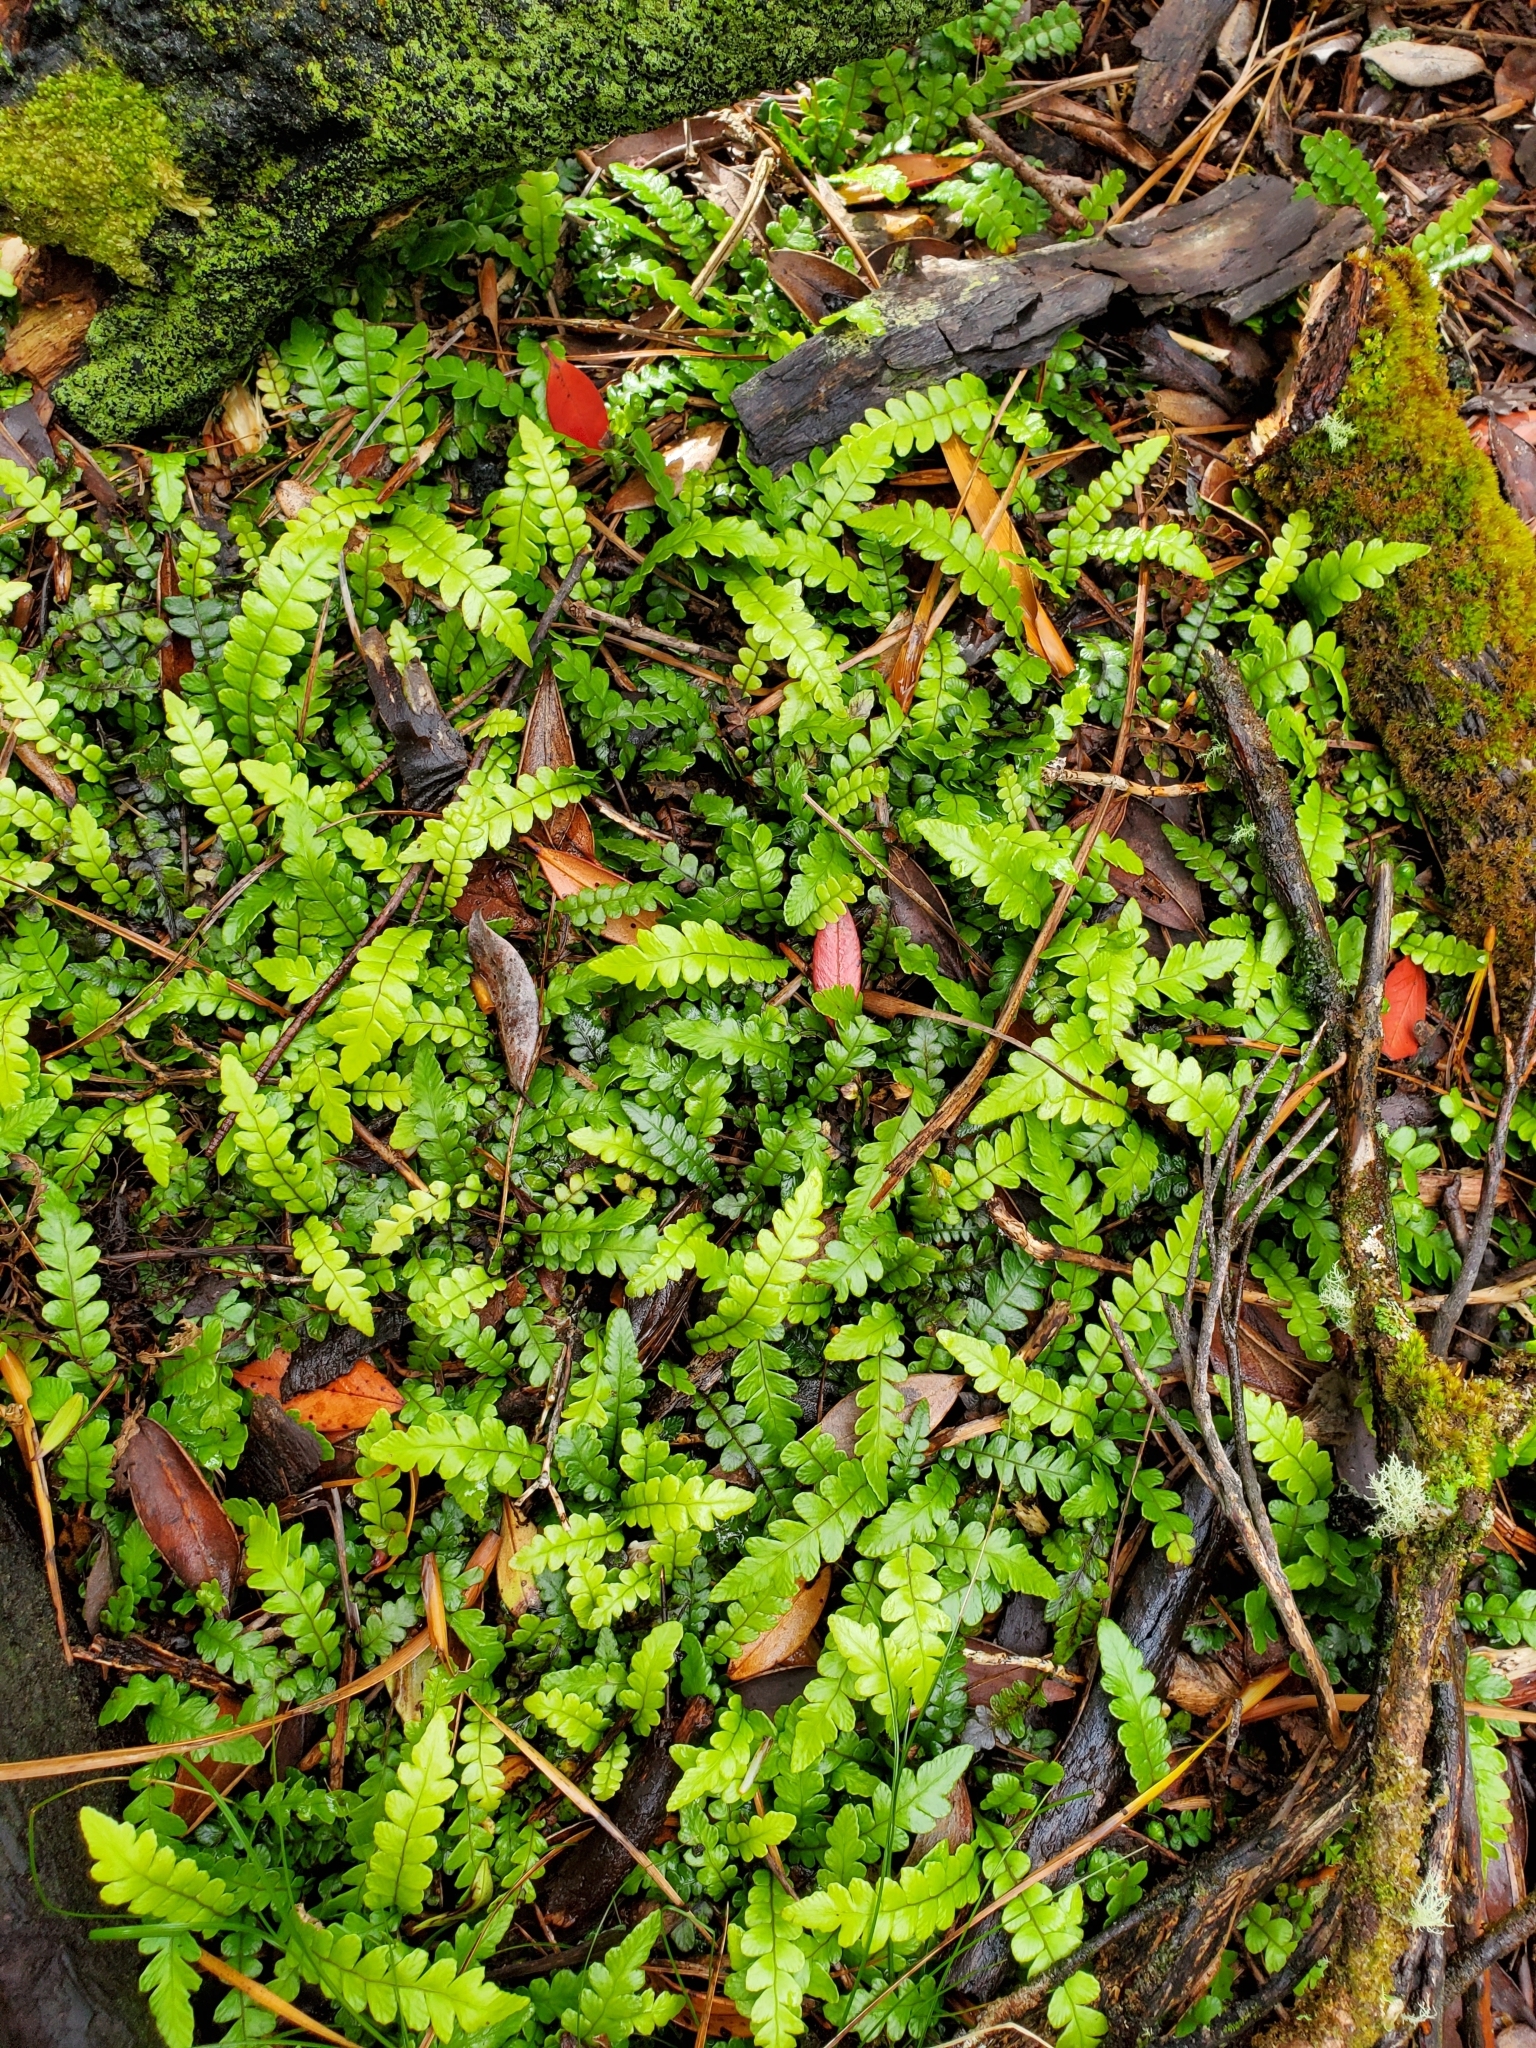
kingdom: Plantae
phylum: Tracheophyta
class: Polypodiopsida
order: Polypodiales
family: Blechnaceae
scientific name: Blechnaceae
